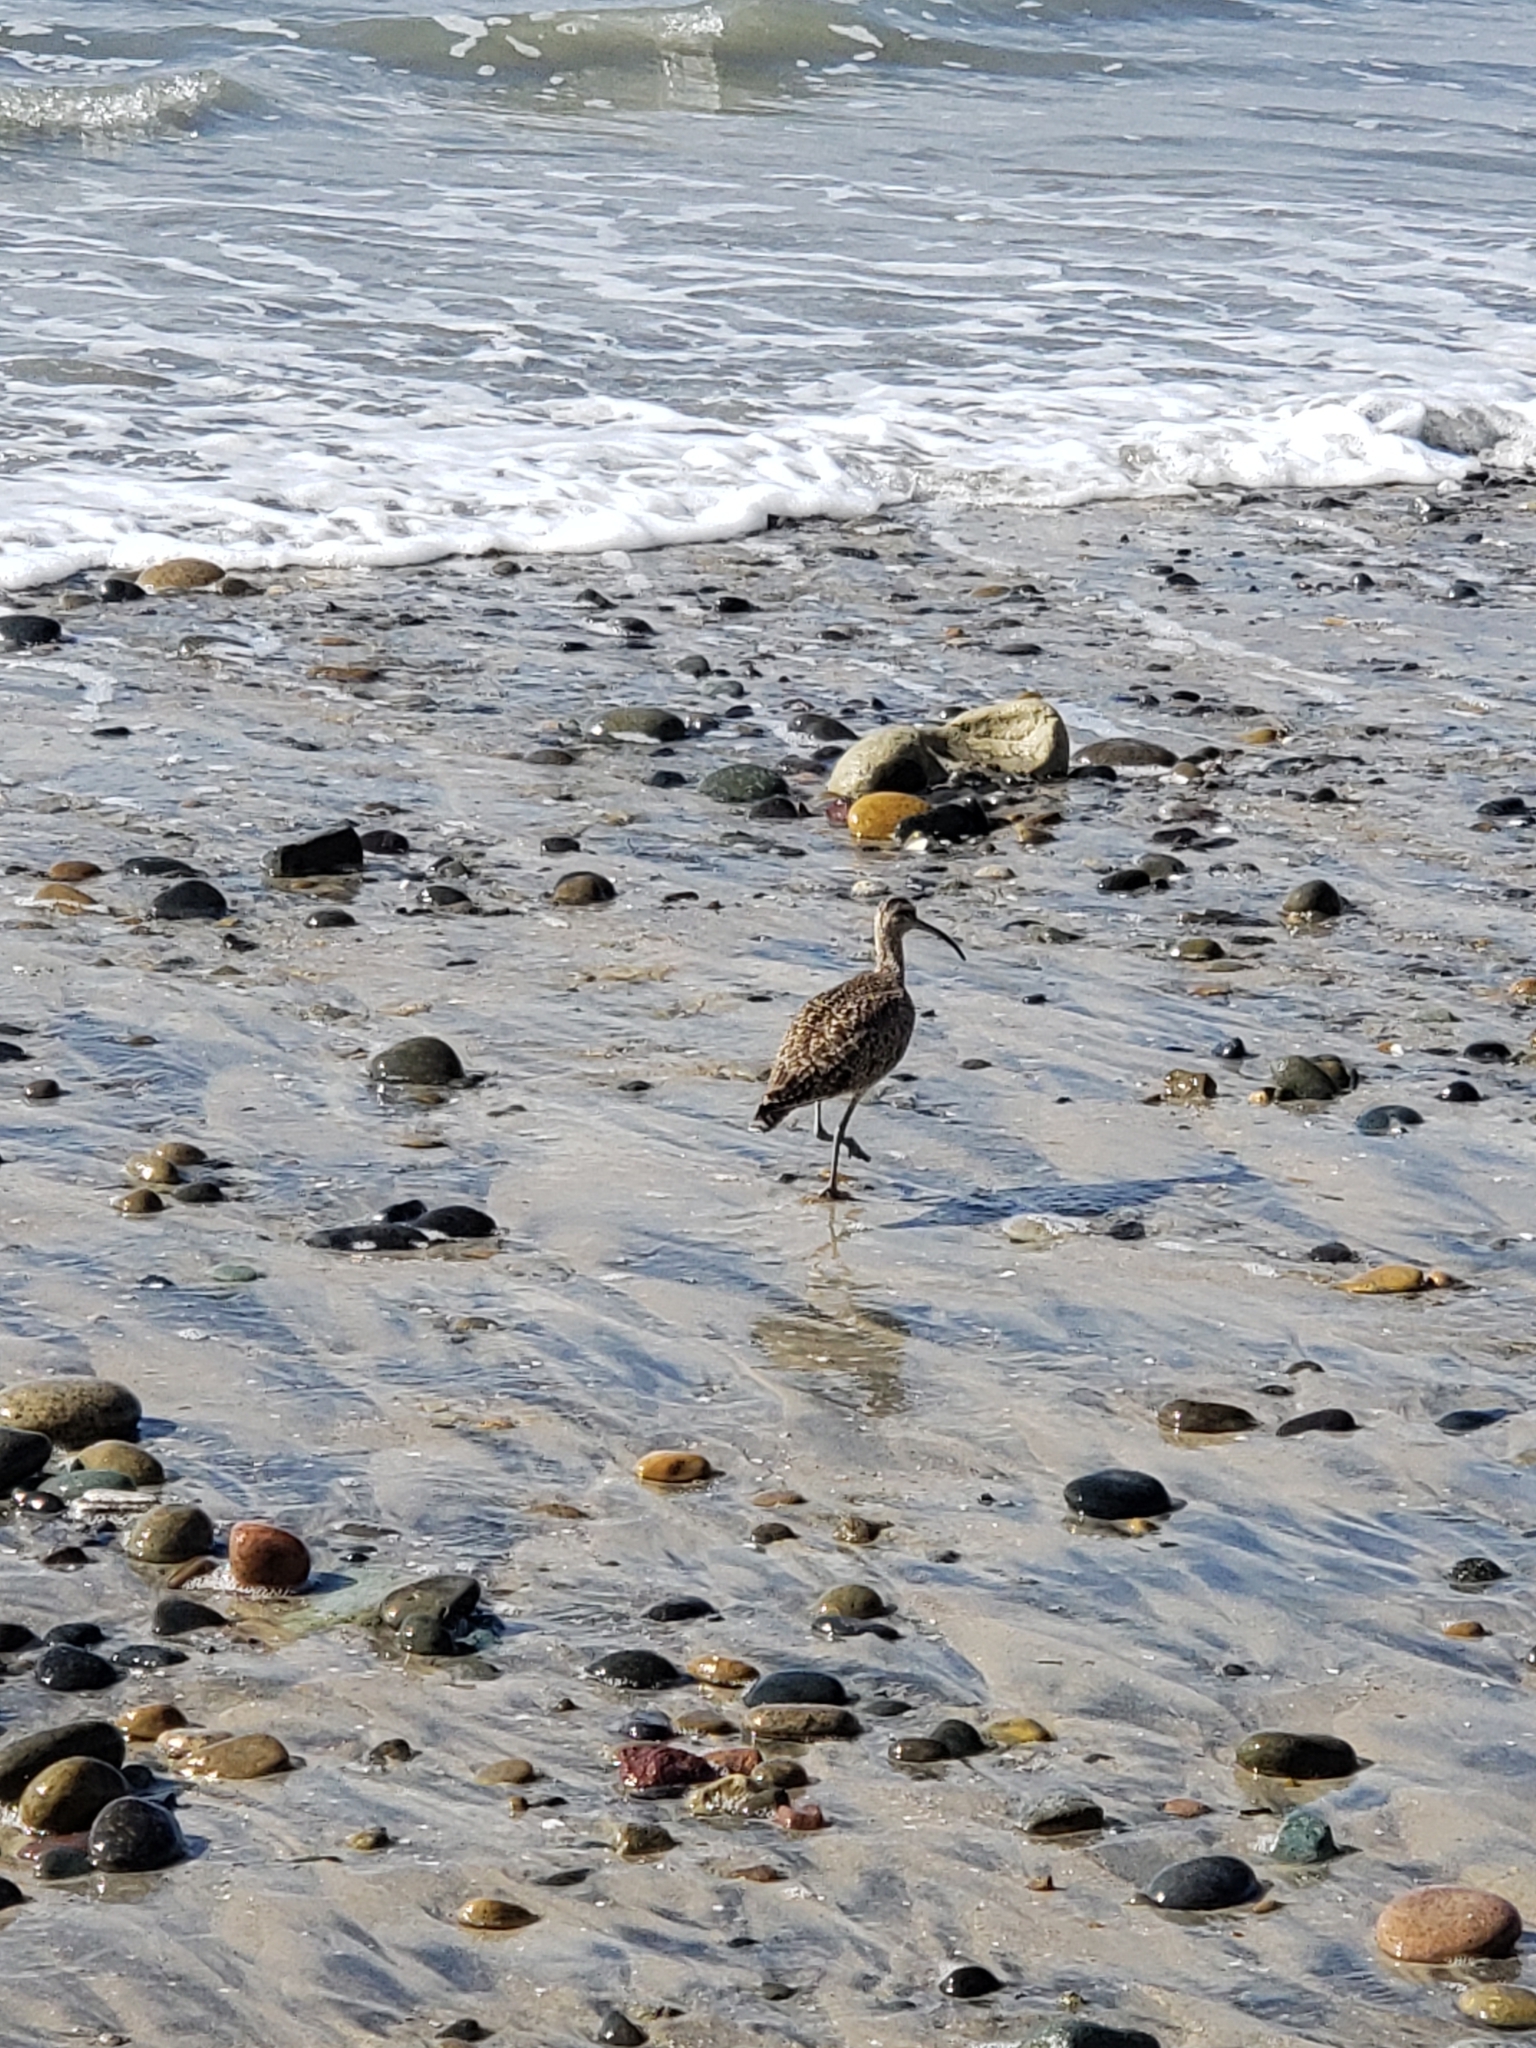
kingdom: Animalia
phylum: Chordata
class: Aves
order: Charadriiformes
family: Scolopacidae
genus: Numenius
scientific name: Numenius phaeopus
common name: Whimbrel
